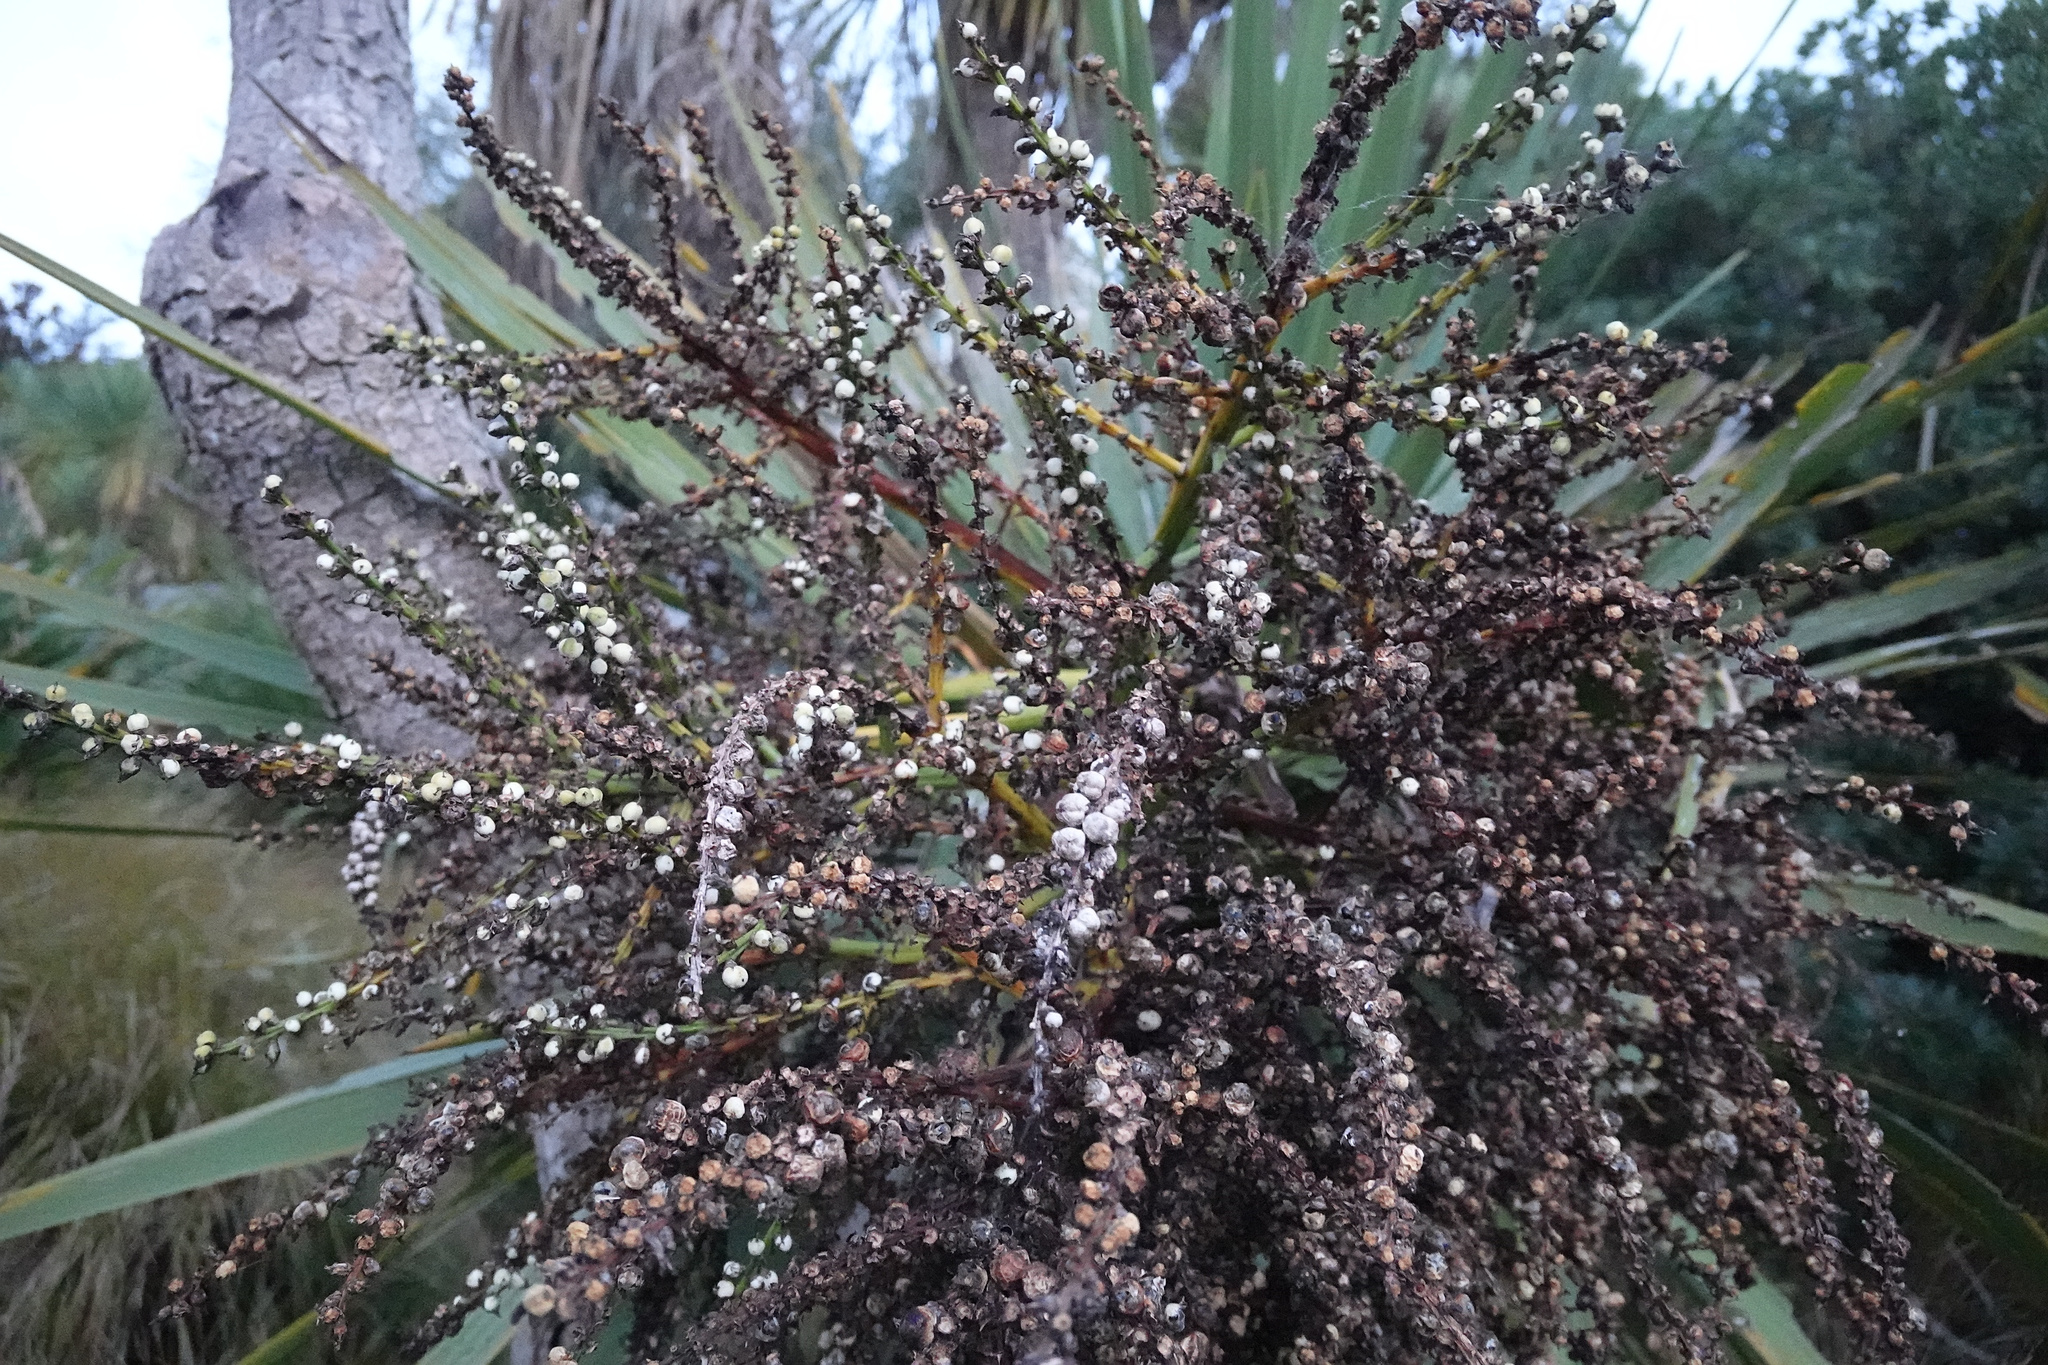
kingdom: Plantae
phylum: Tracheophyta
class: Liliopsida
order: Asparagales
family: Asparagaceae
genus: Cordyline
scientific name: Cordyline australis
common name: Cabbage-palm
